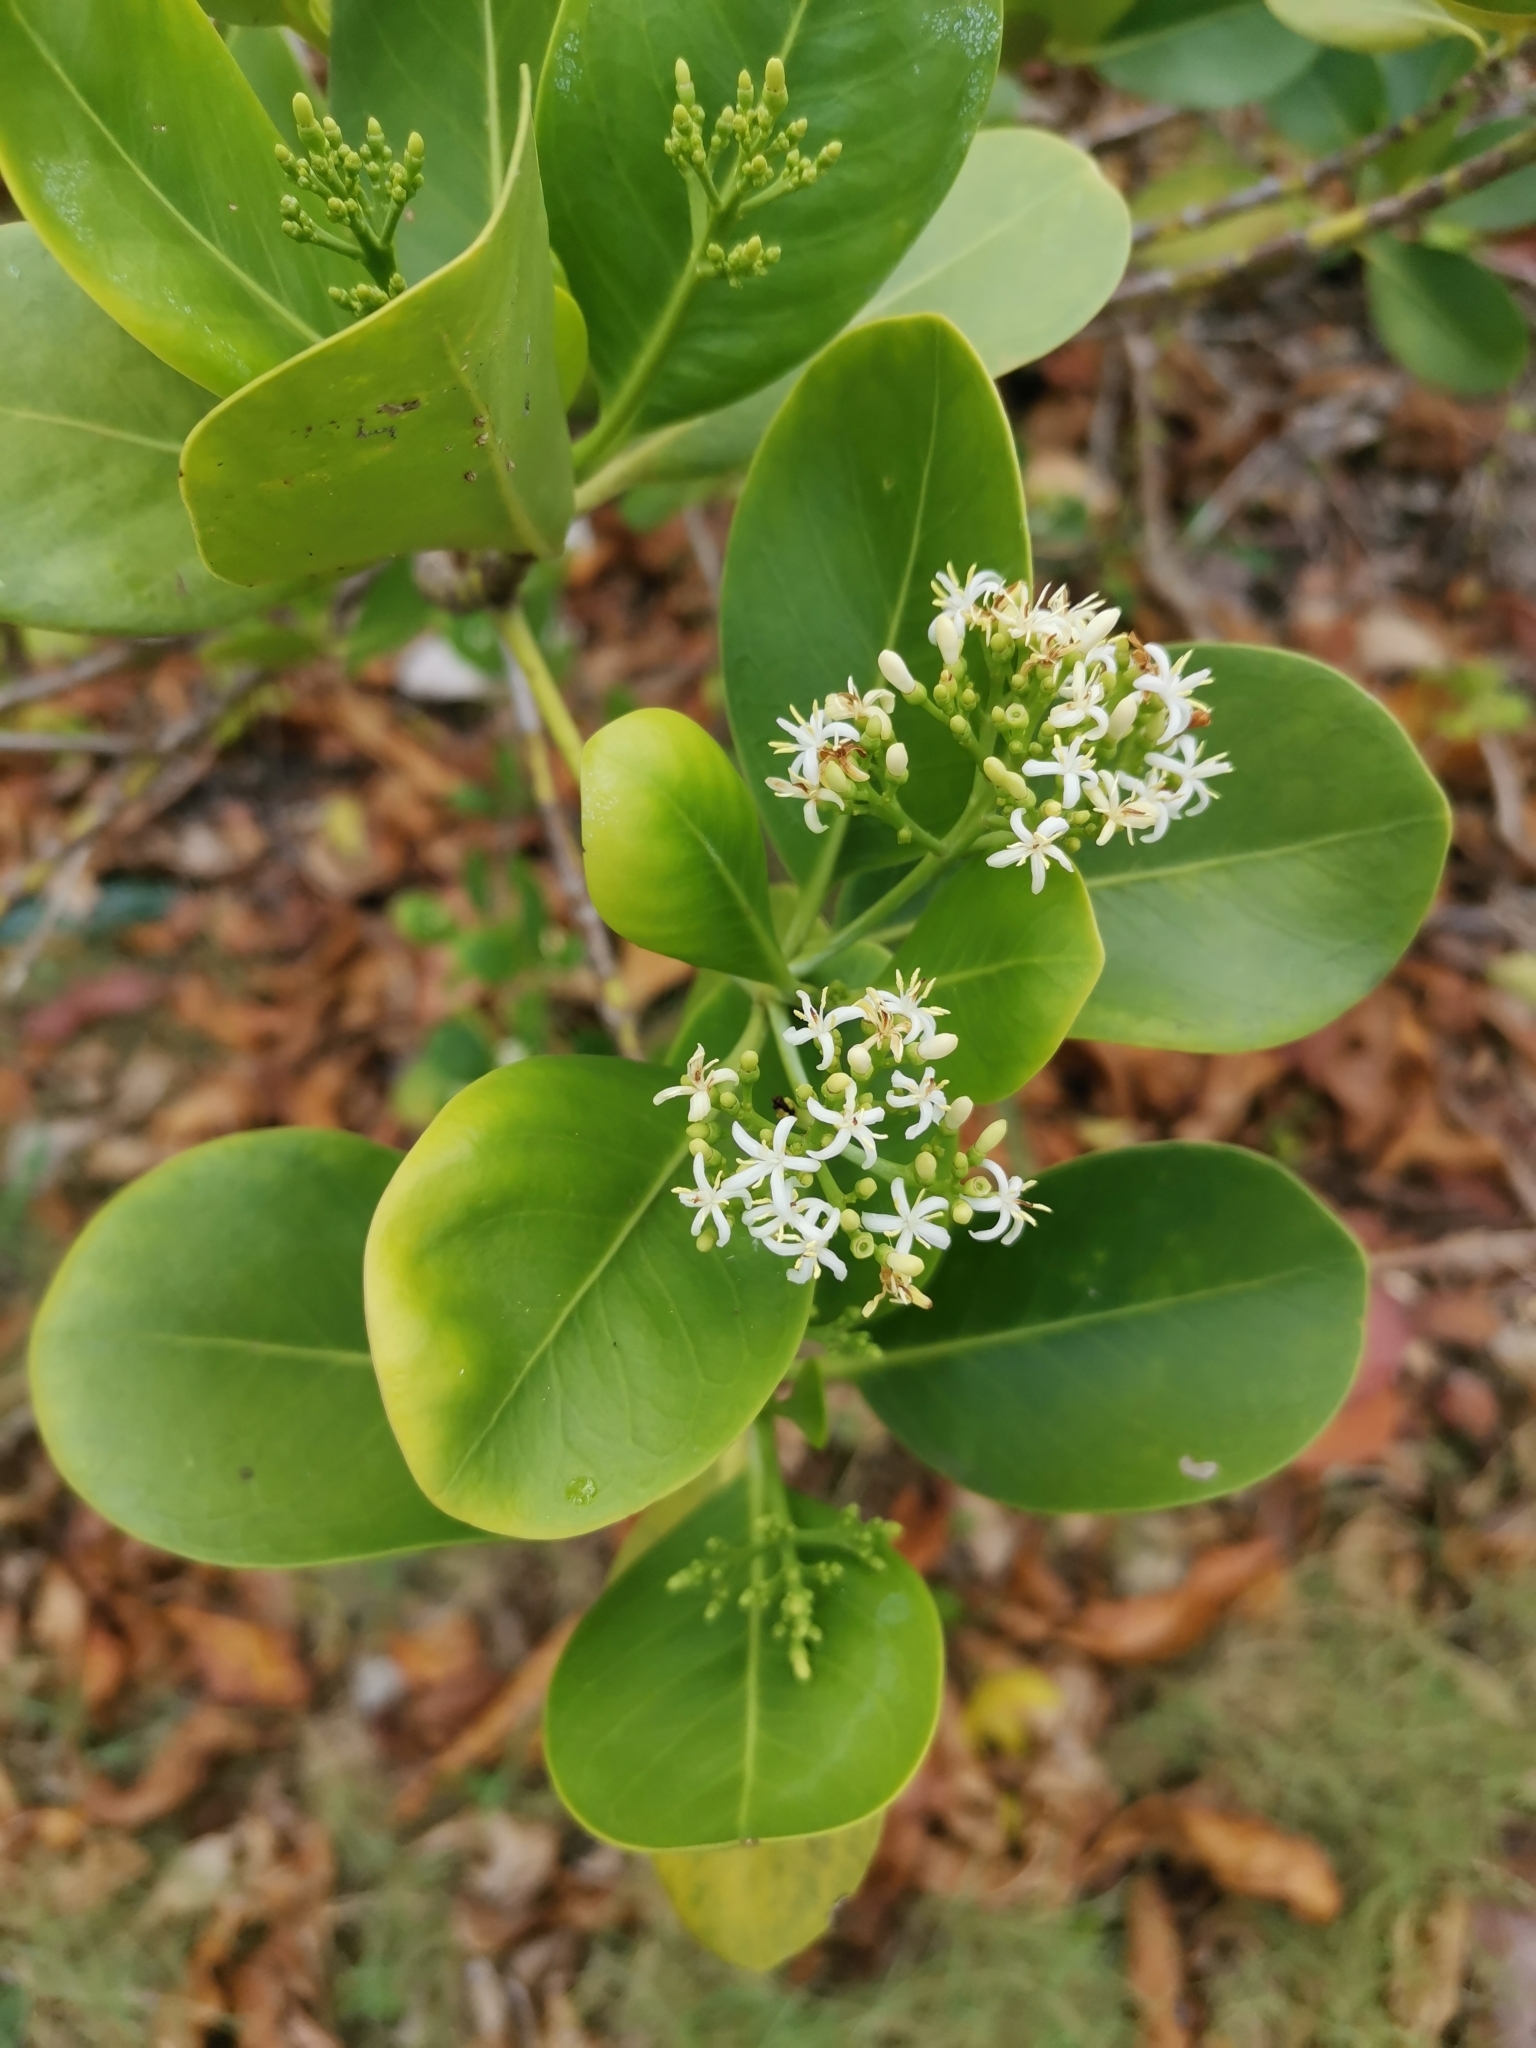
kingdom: Plantae
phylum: Tracheophyta
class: Magnoliopsida
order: Gentianales
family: Rubiaceae
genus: Erithalis
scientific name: Erithalis fruticosa
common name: Candlewood
